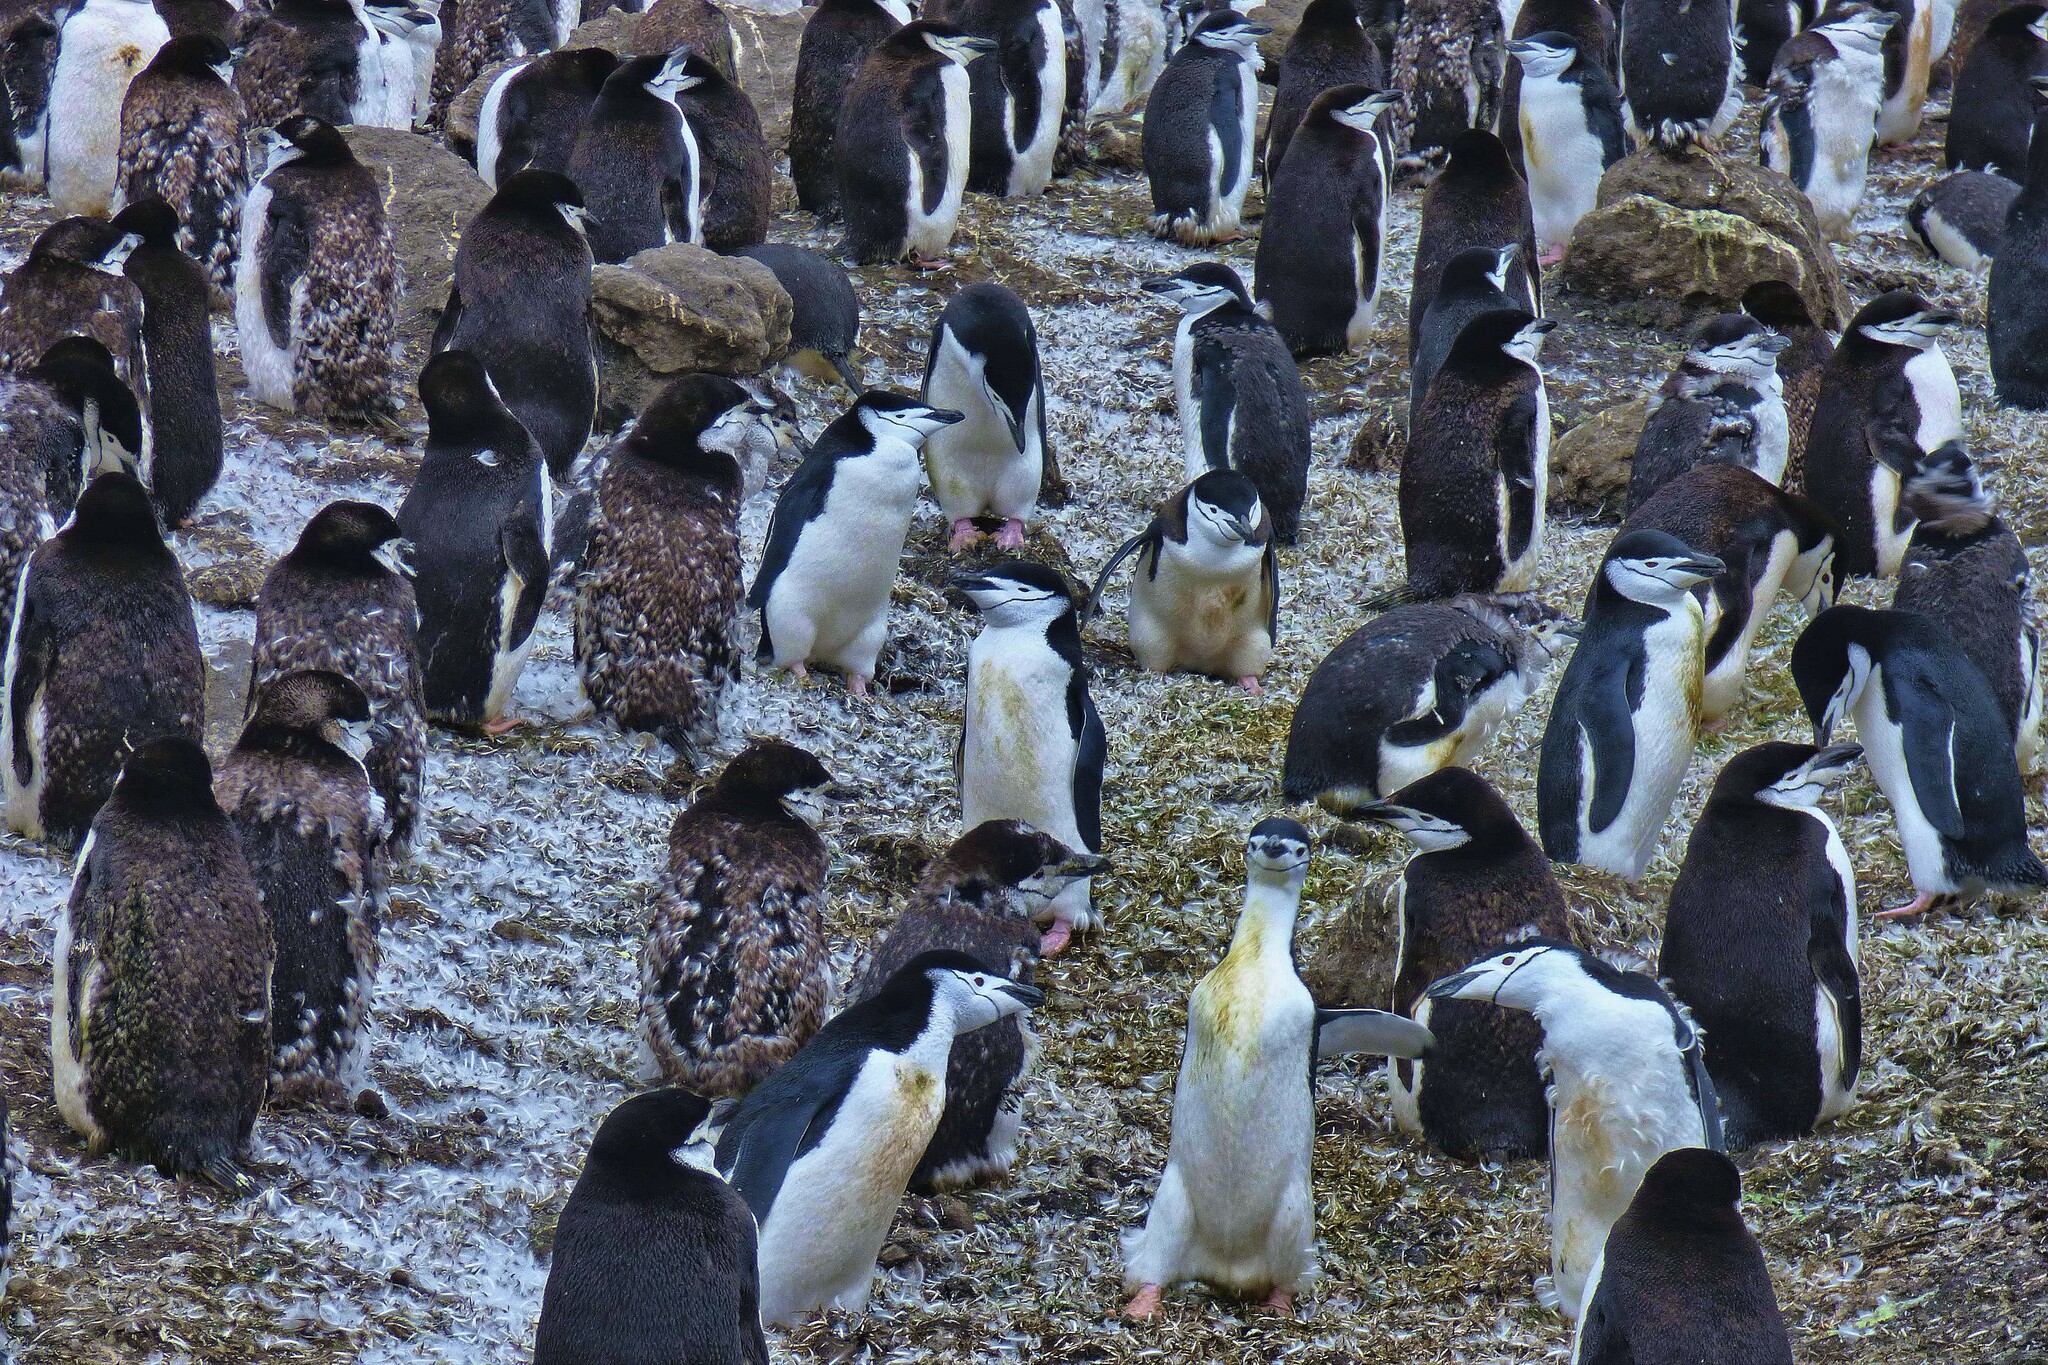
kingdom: Animalia
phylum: Chordata
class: Aves
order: Sphenisciformes
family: Spheniscidae
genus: Pygoscelis
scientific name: Pygoscelis antarcticus
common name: Chinstrap penguin
